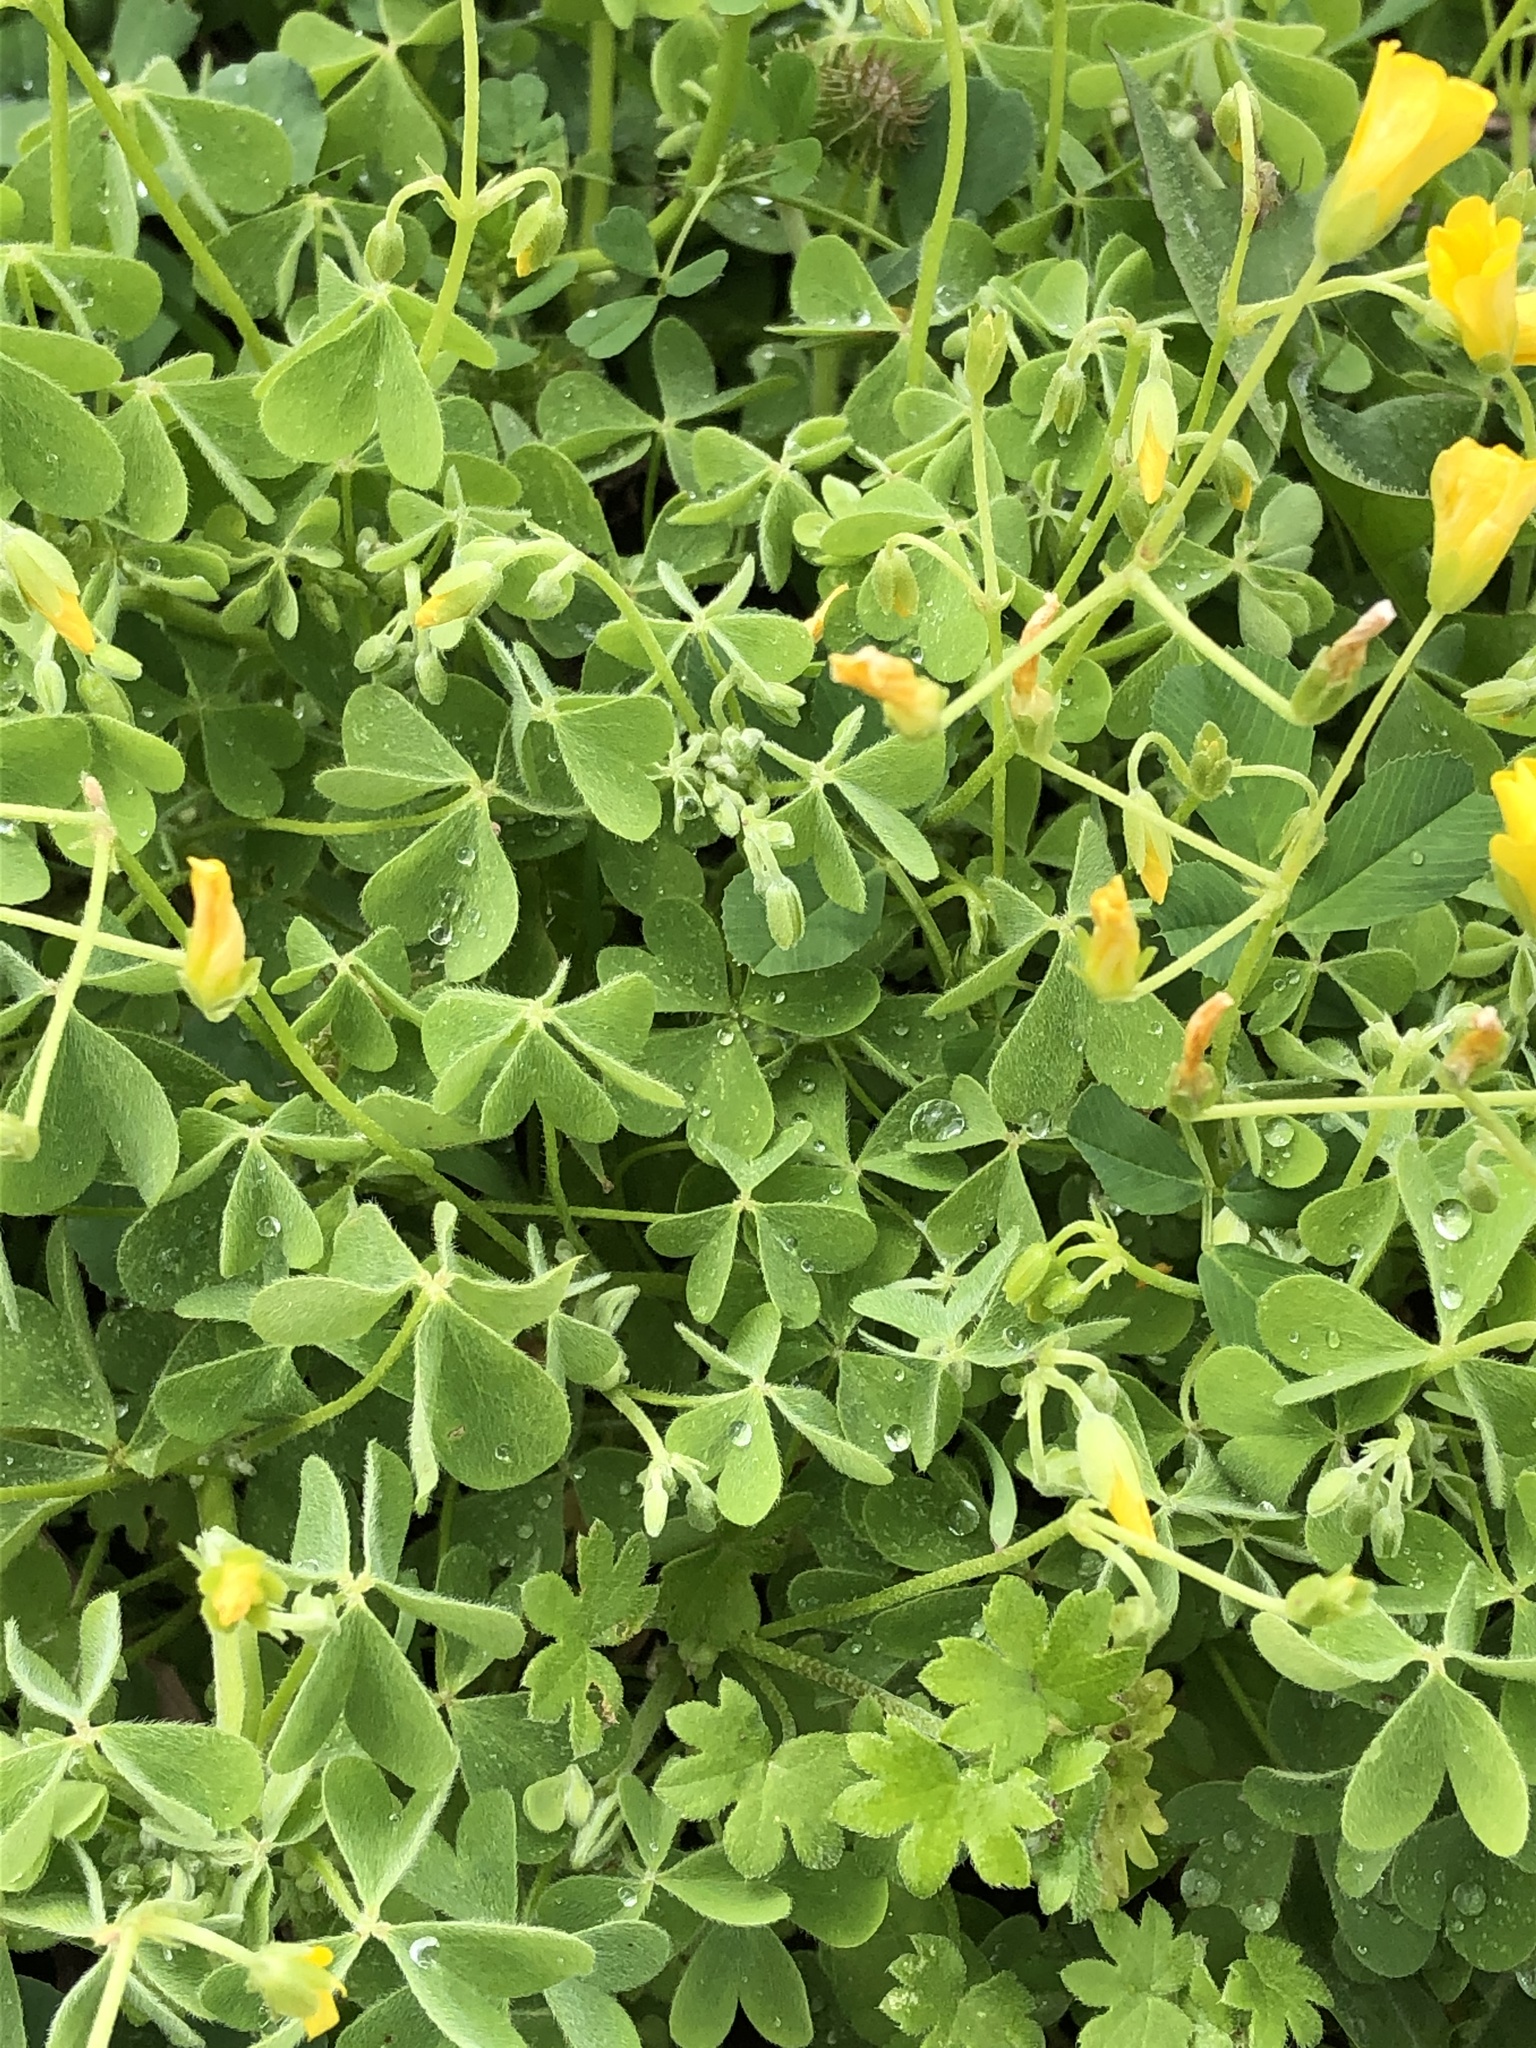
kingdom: Plantae
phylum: Tracheophyta
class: Magnoliopsida
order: Oxalidales
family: Oxalidaceae
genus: Oxalis
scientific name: Oxalis dillenii
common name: Sussex yellow-sorrel
